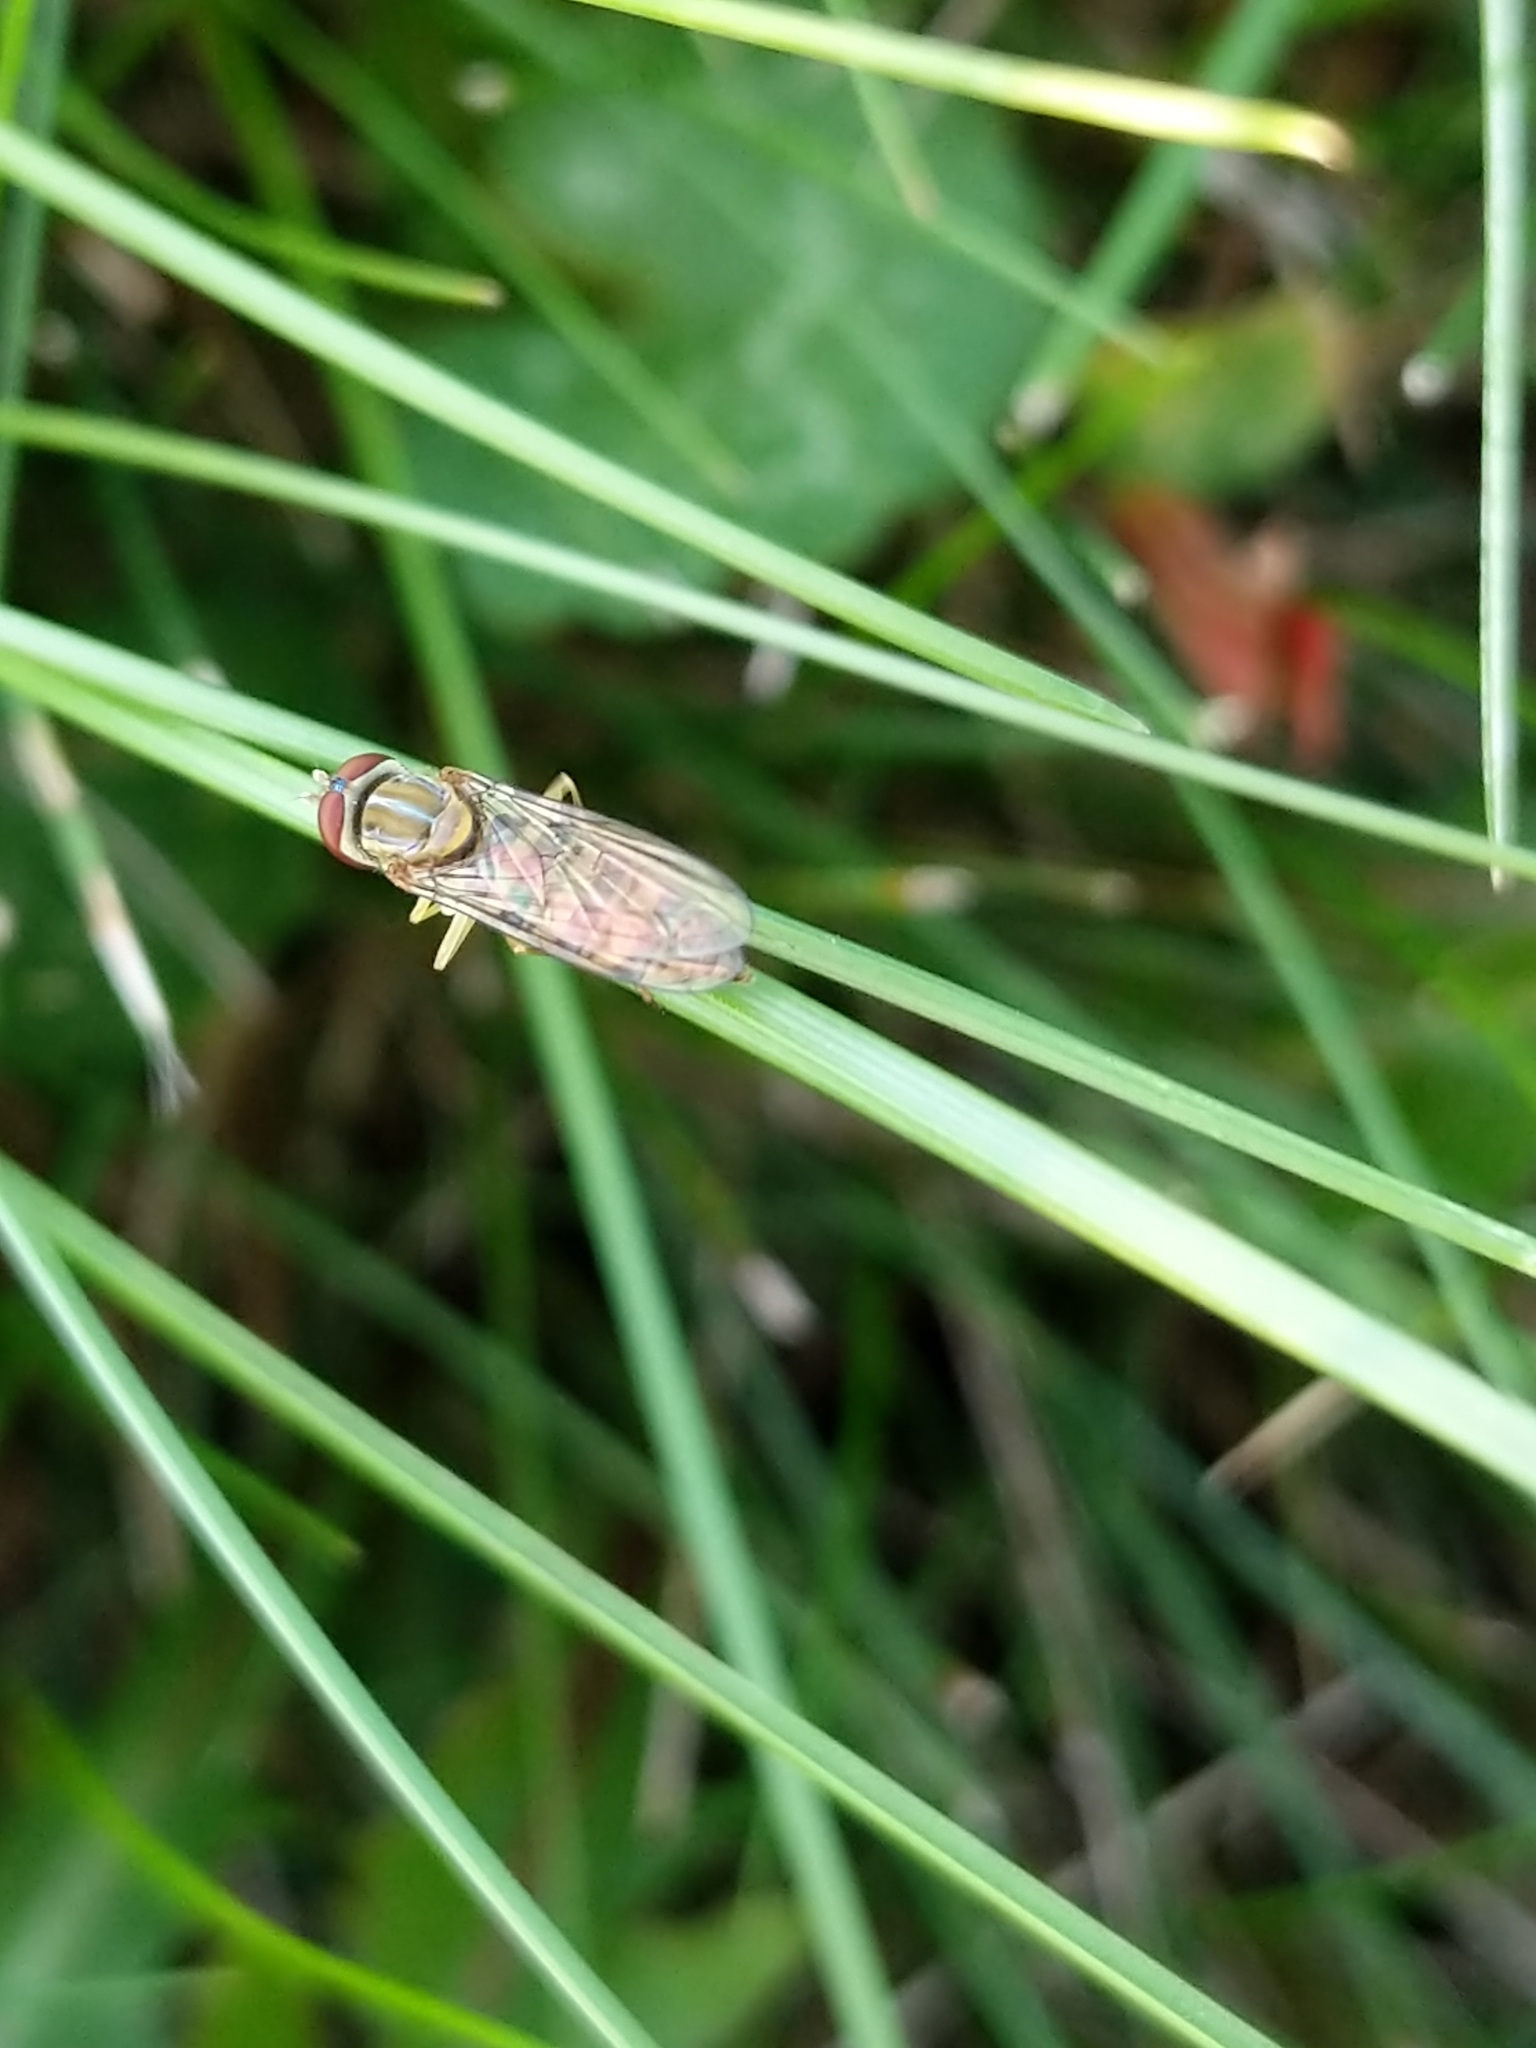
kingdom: Animalia
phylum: Arthropoda
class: Insecta
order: Diptera
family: Syrphidae
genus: Toxomerus
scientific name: Toxomerus politus
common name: Maize calligrapher
